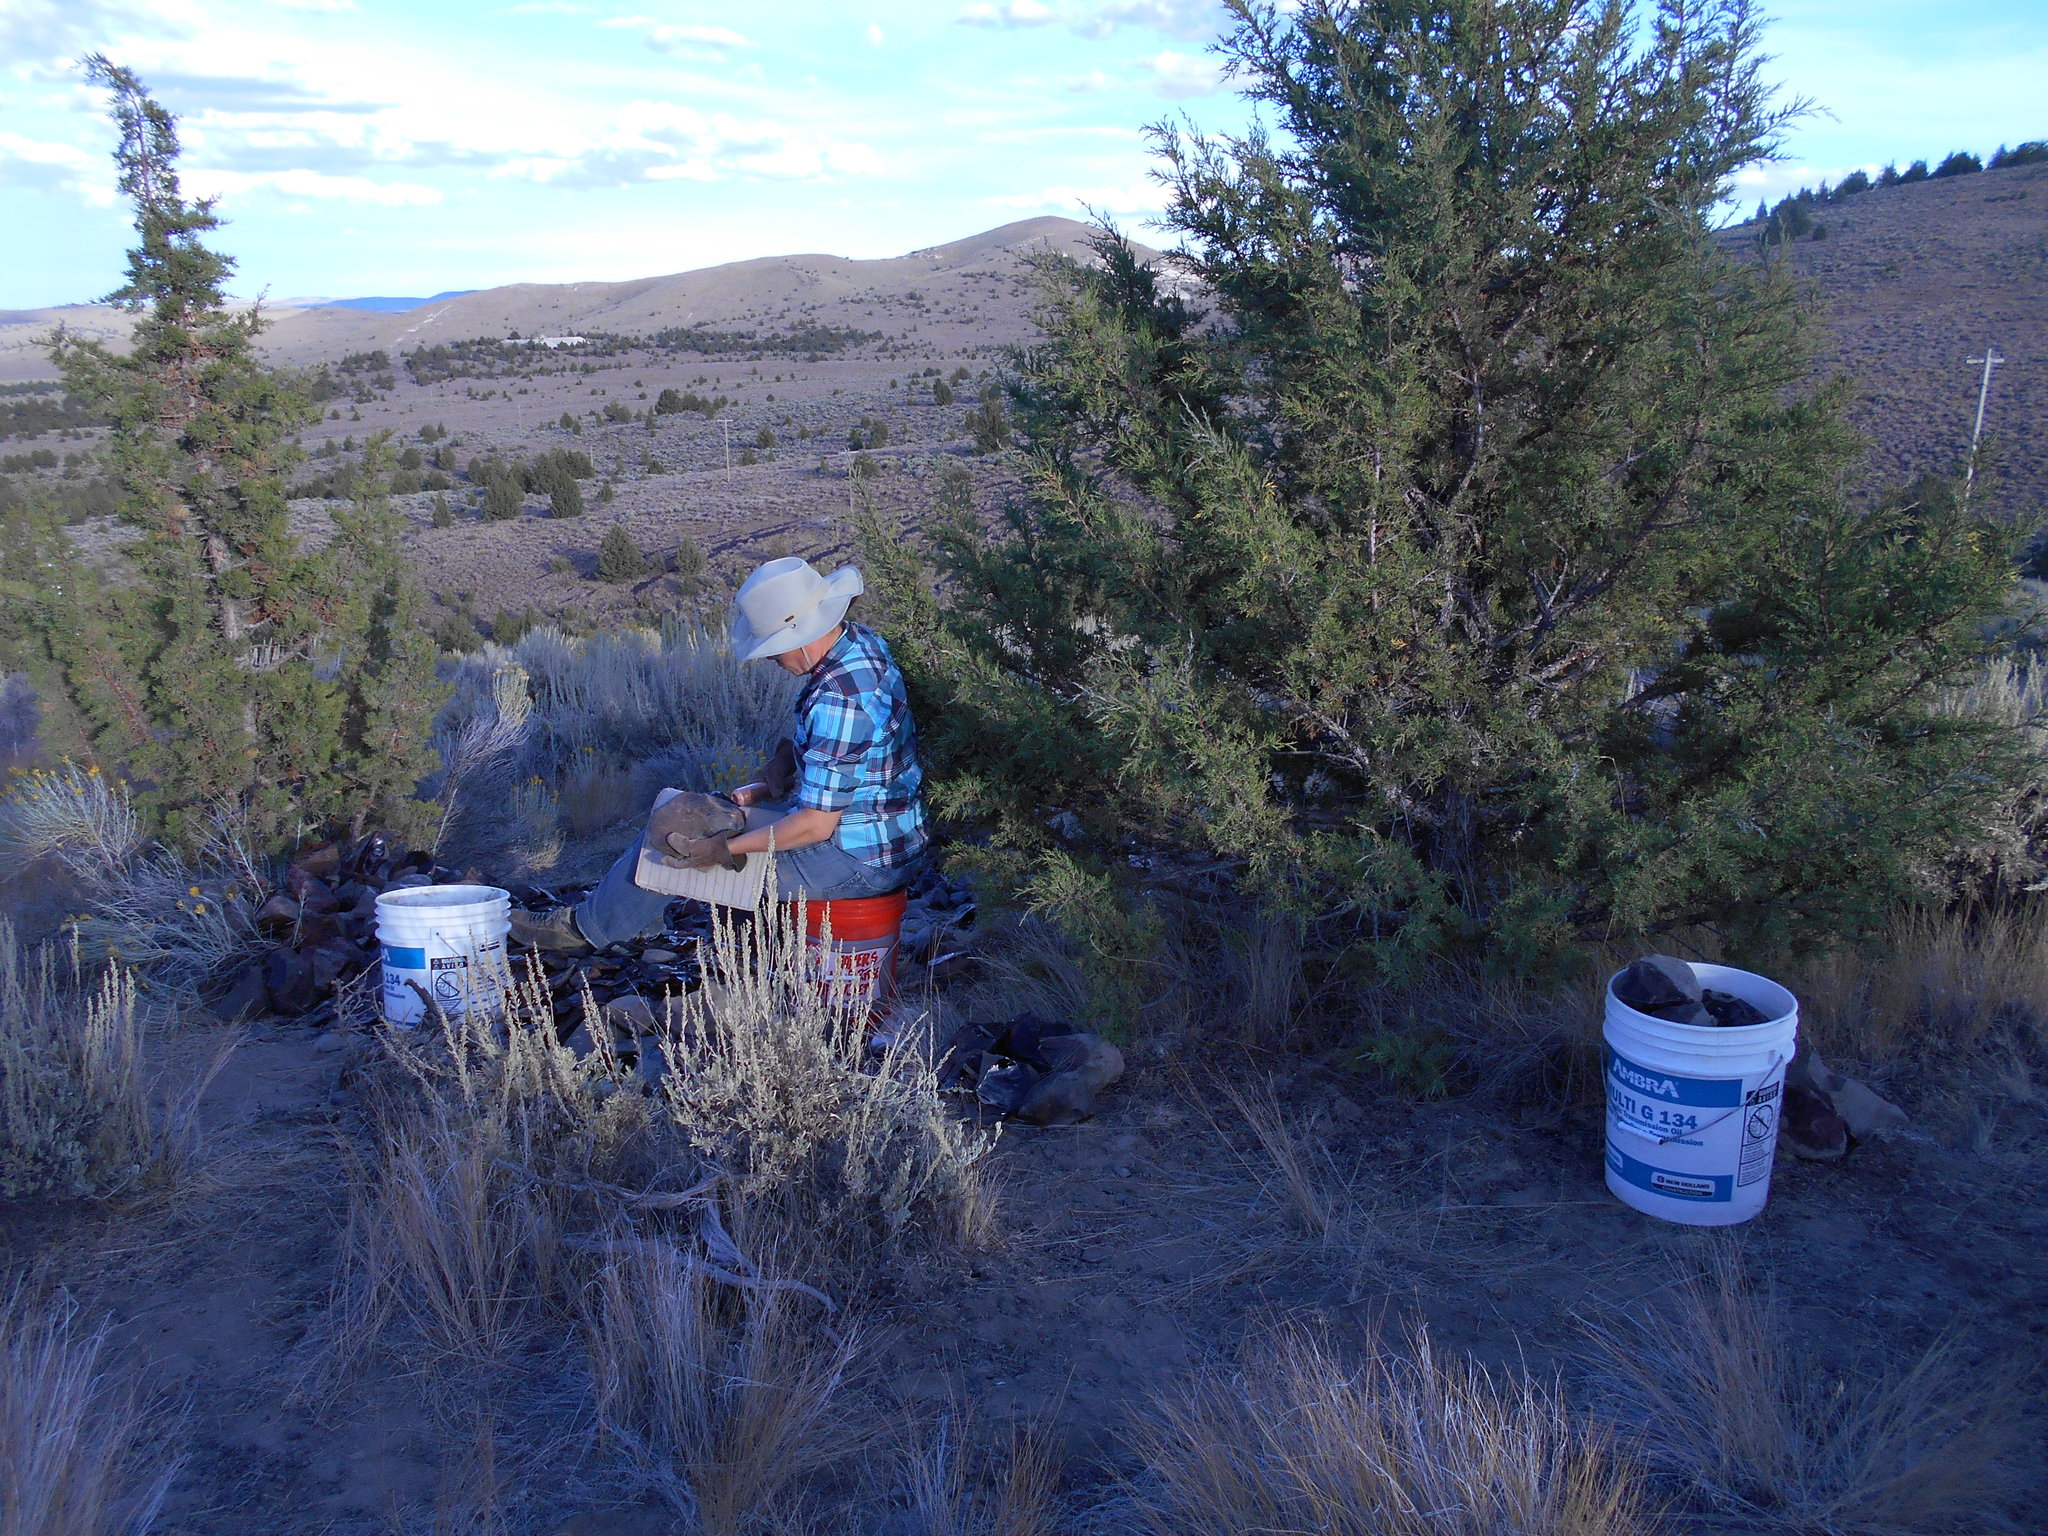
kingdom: Plantae
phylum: Tracheophyta
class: Pinopsida
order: Pinales
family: Cupressaceae
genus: Juniperus
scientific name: Juniperus occidentalis
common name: Western juniper
